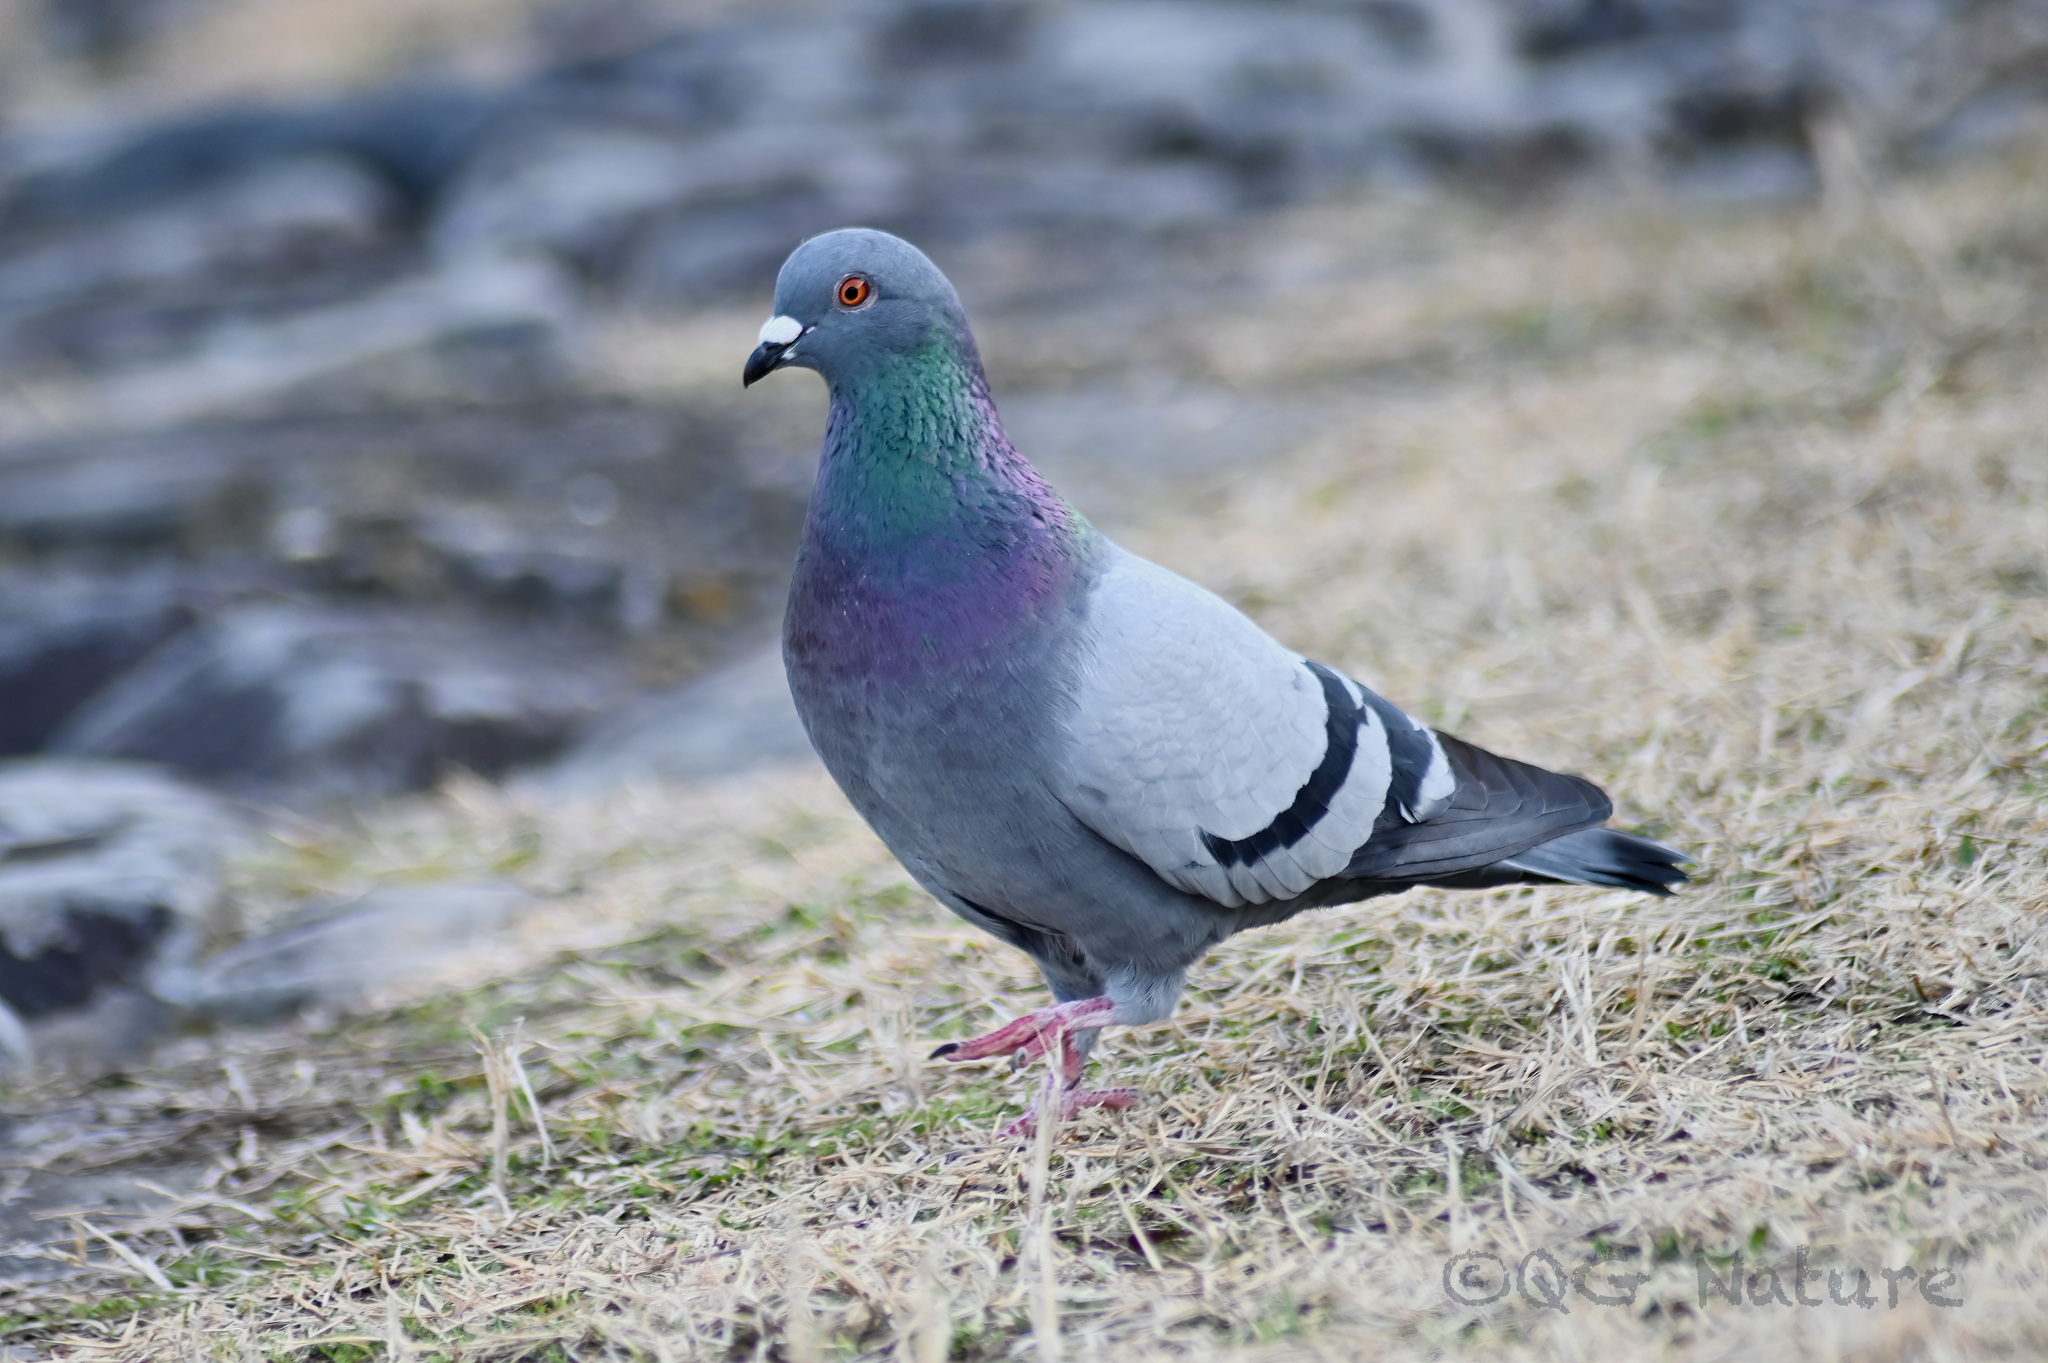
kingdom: Animalia
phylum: Chordata
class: Aves
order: Columbiformes
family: Columbidae
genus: Columba
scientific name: Columba livia
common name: Rock pigeon
